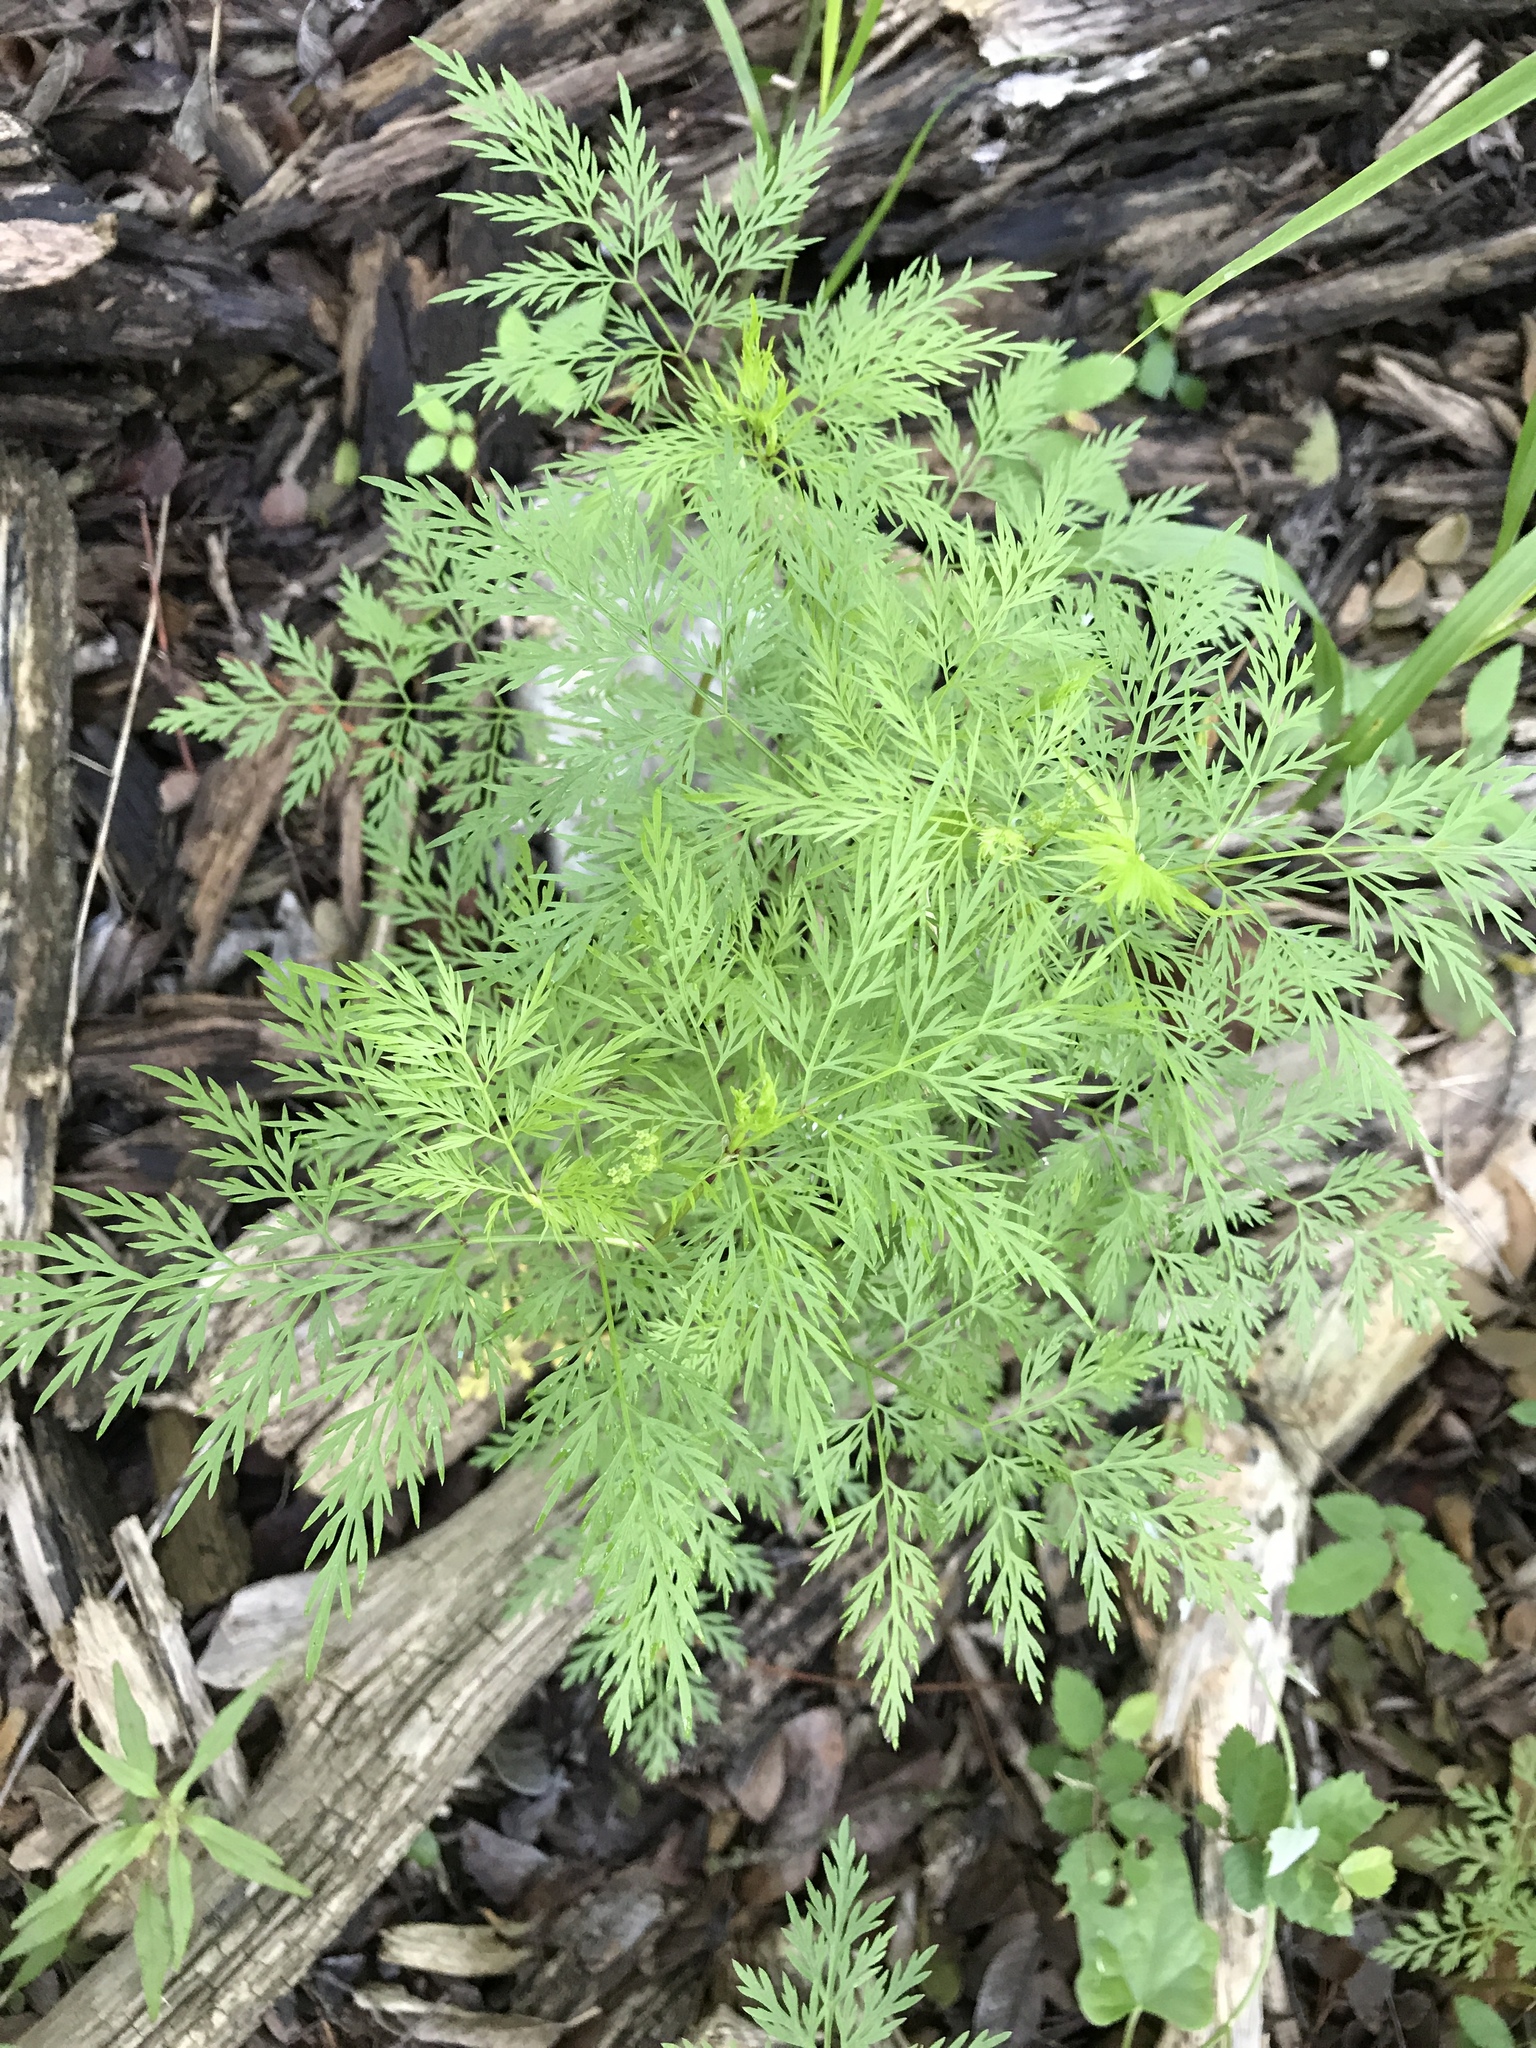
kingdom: Plantae
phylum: Tracheophyta
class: Magnoliopsida
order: Apiales
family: Apiaceae
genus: Trepocarpus
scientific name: Trepocarpus aethusae
